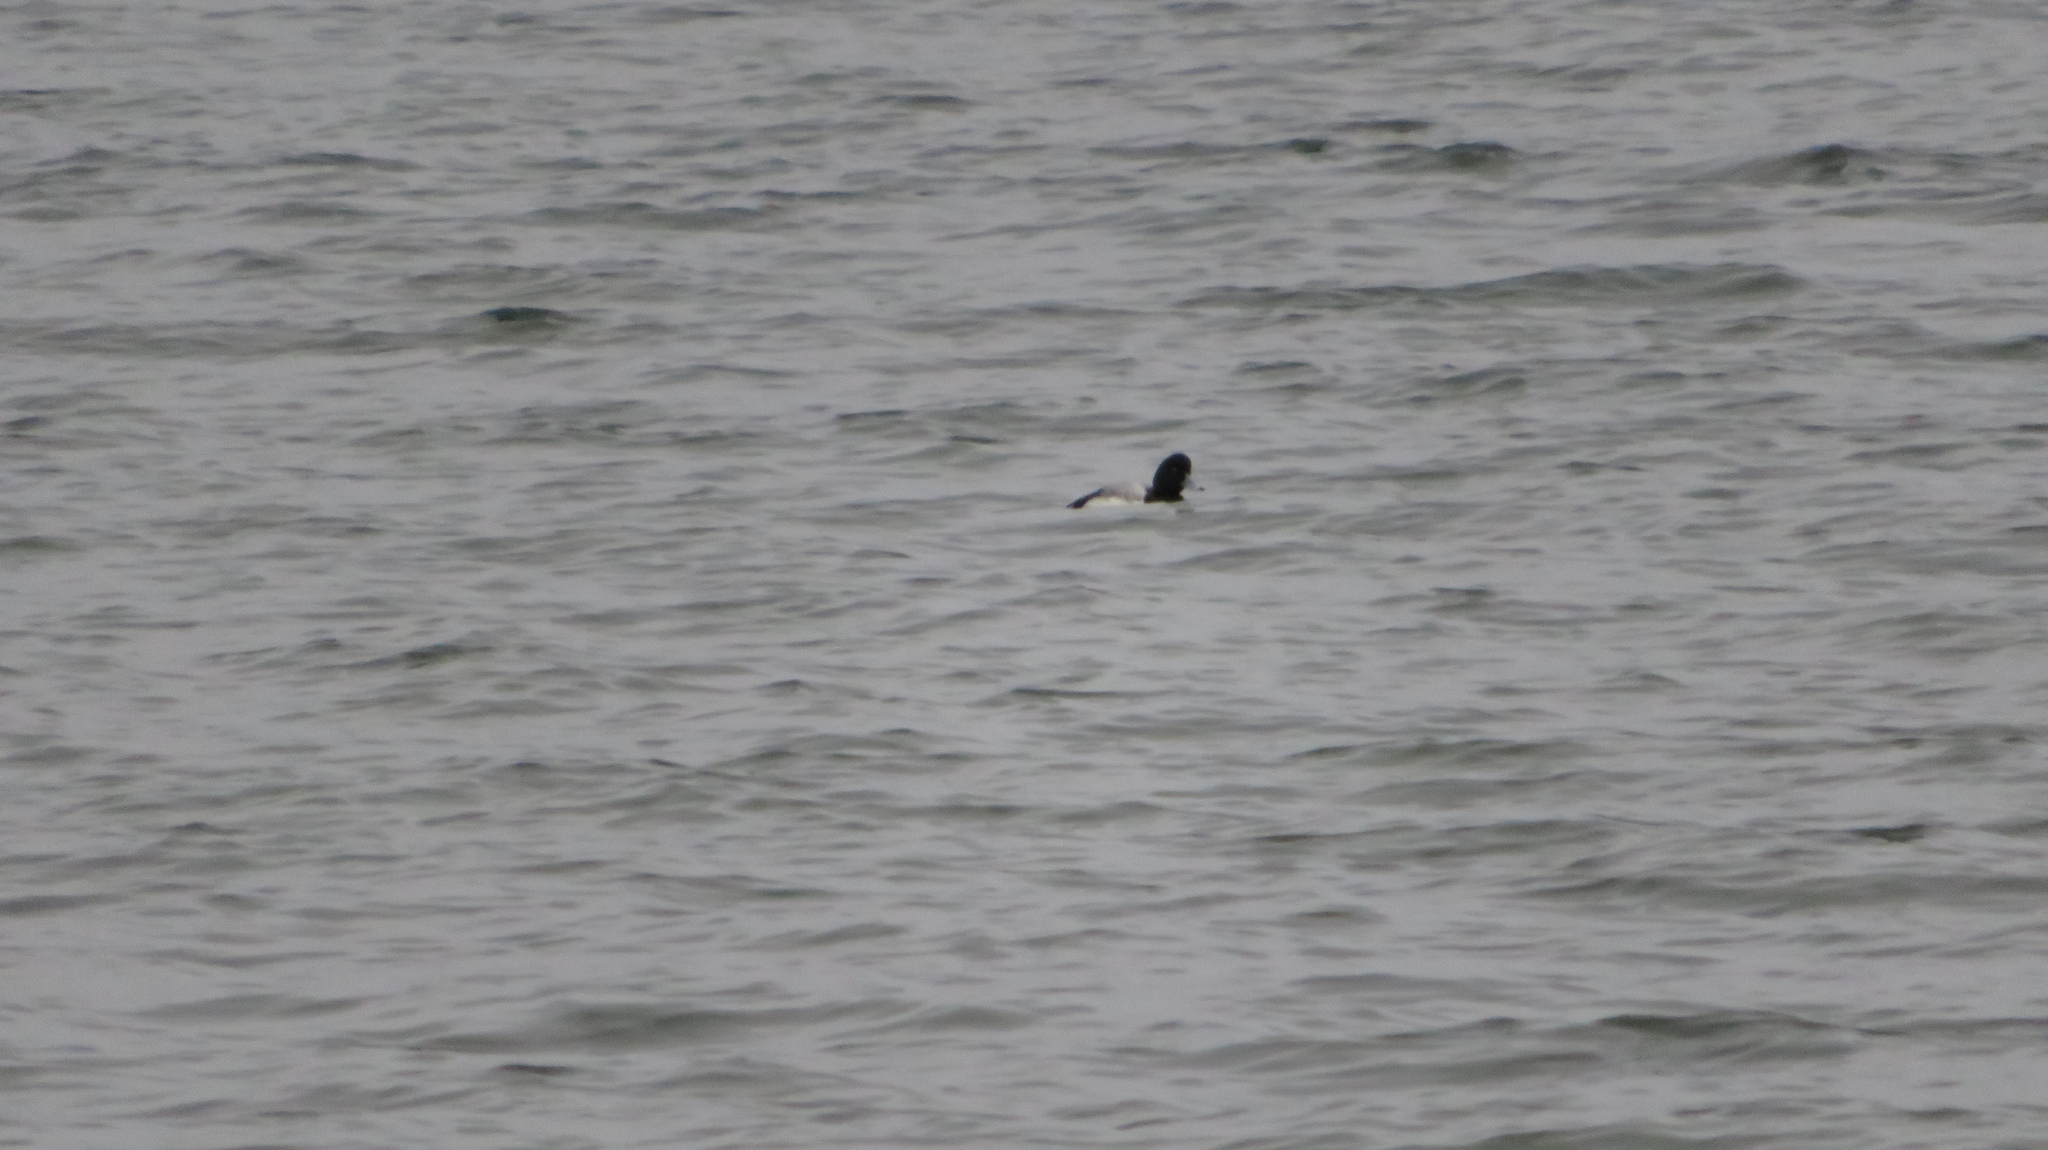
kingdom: Animalia
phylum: Chordata
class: Aves
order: Anseriformes
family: Anatidae
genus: Aythya
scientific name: Aythya marila
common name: Greater scaup
